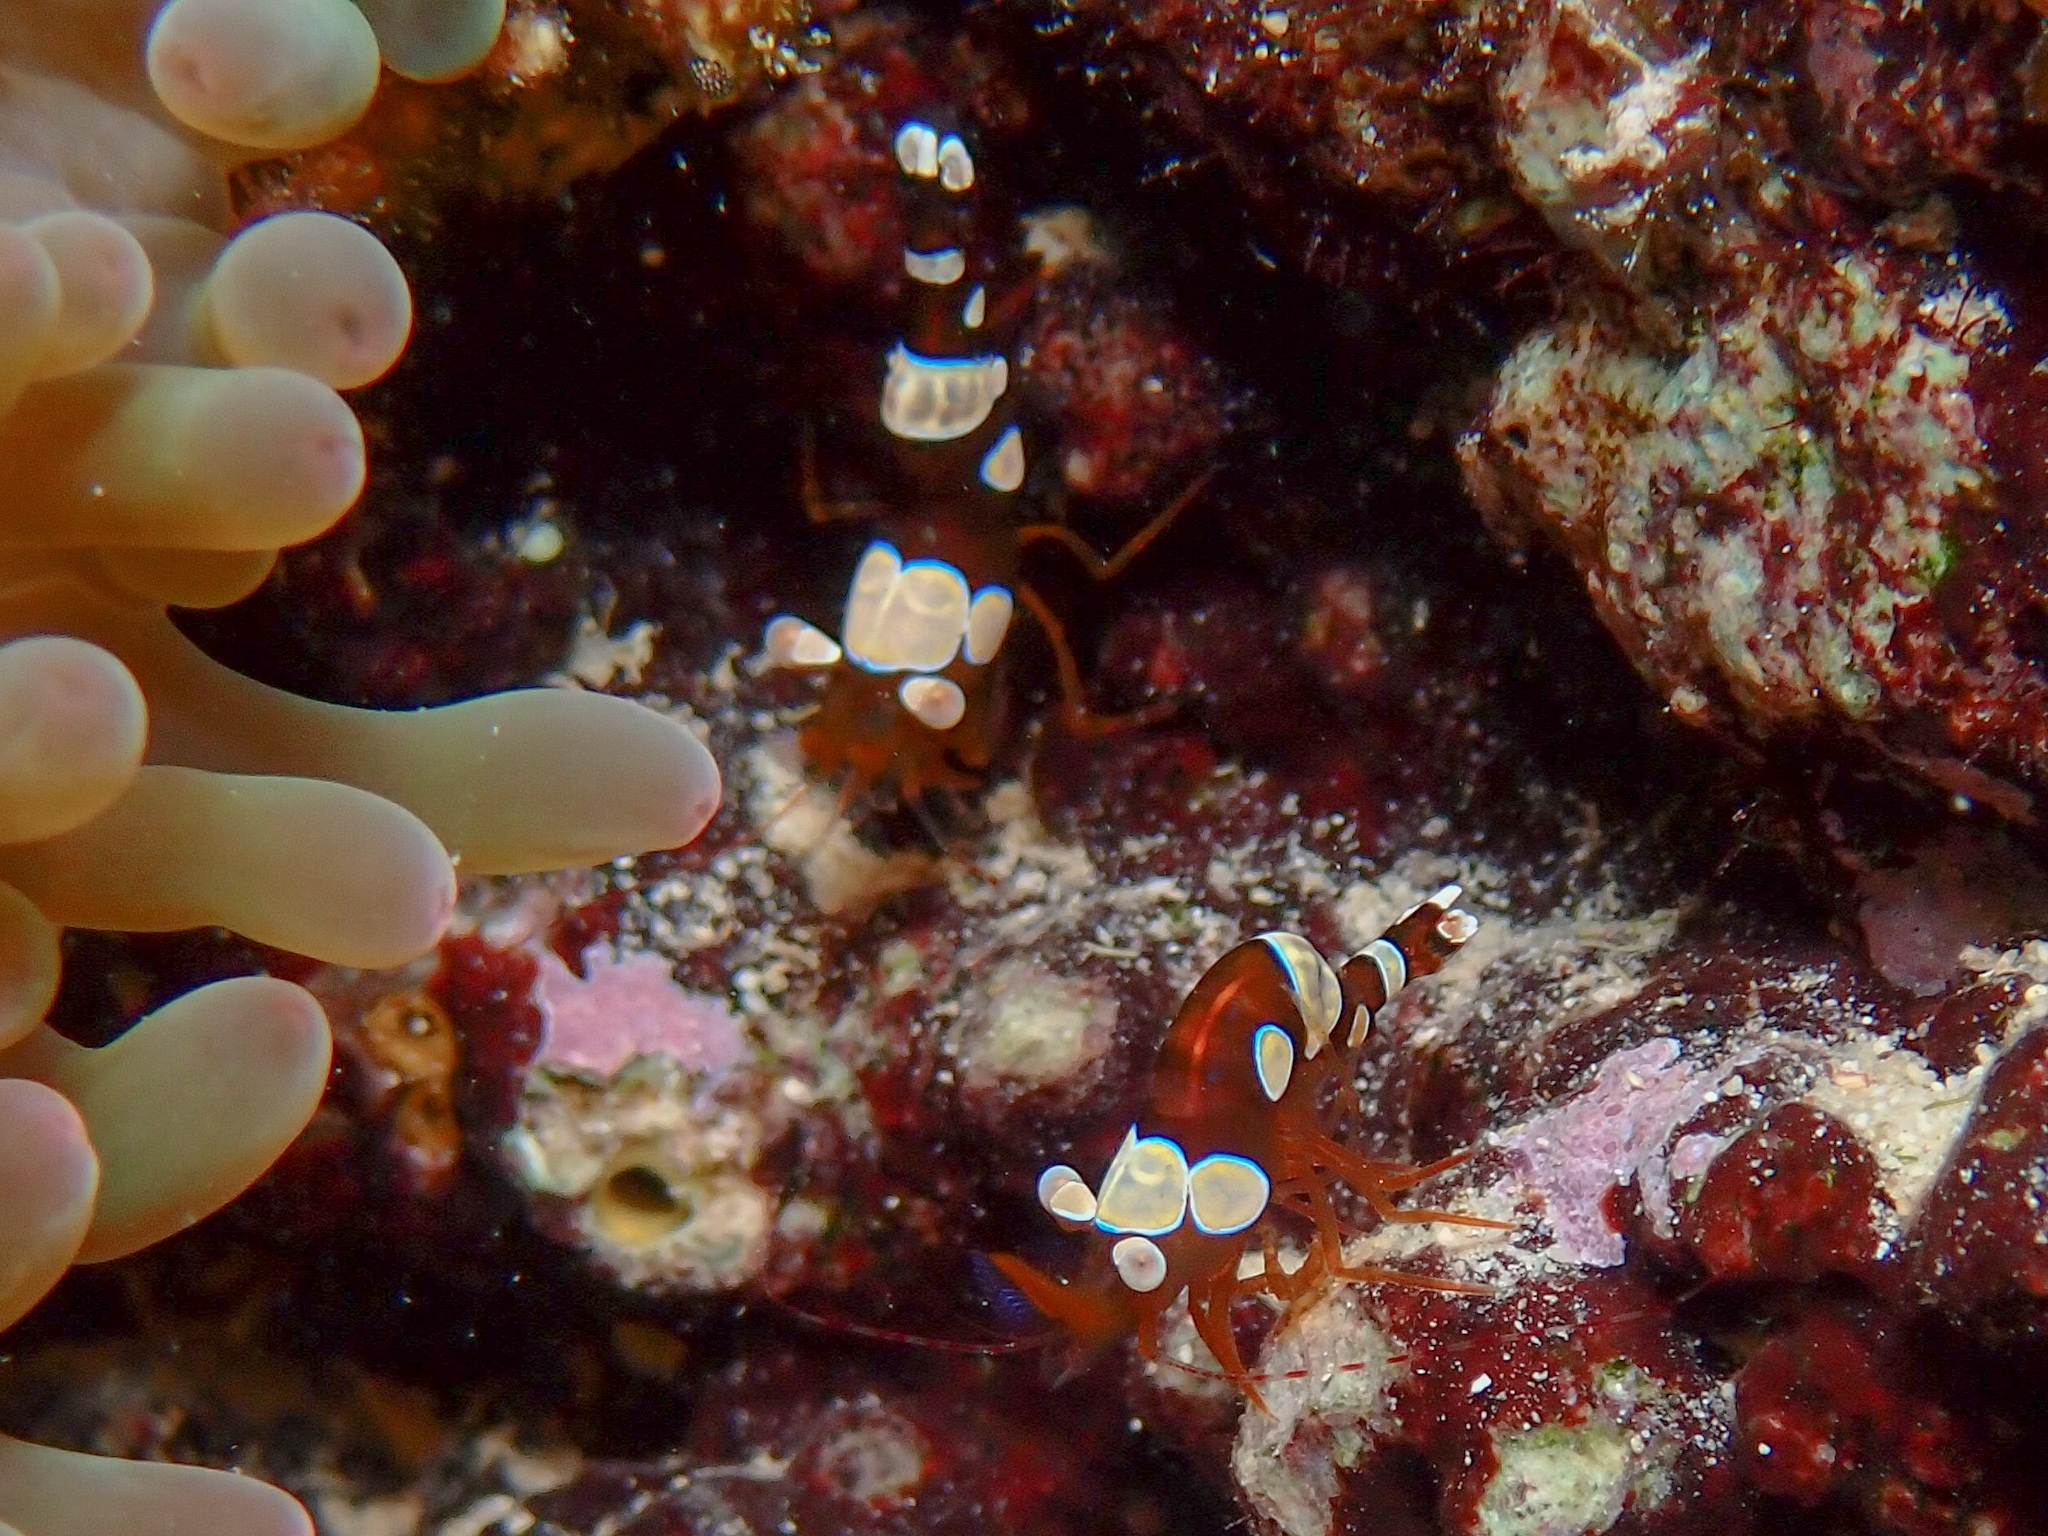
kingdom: Animalia
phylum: Arthropoda
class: Malacostraca
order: Decapoda
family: Thoridae
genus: Thor
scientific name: Thor dicaprio
